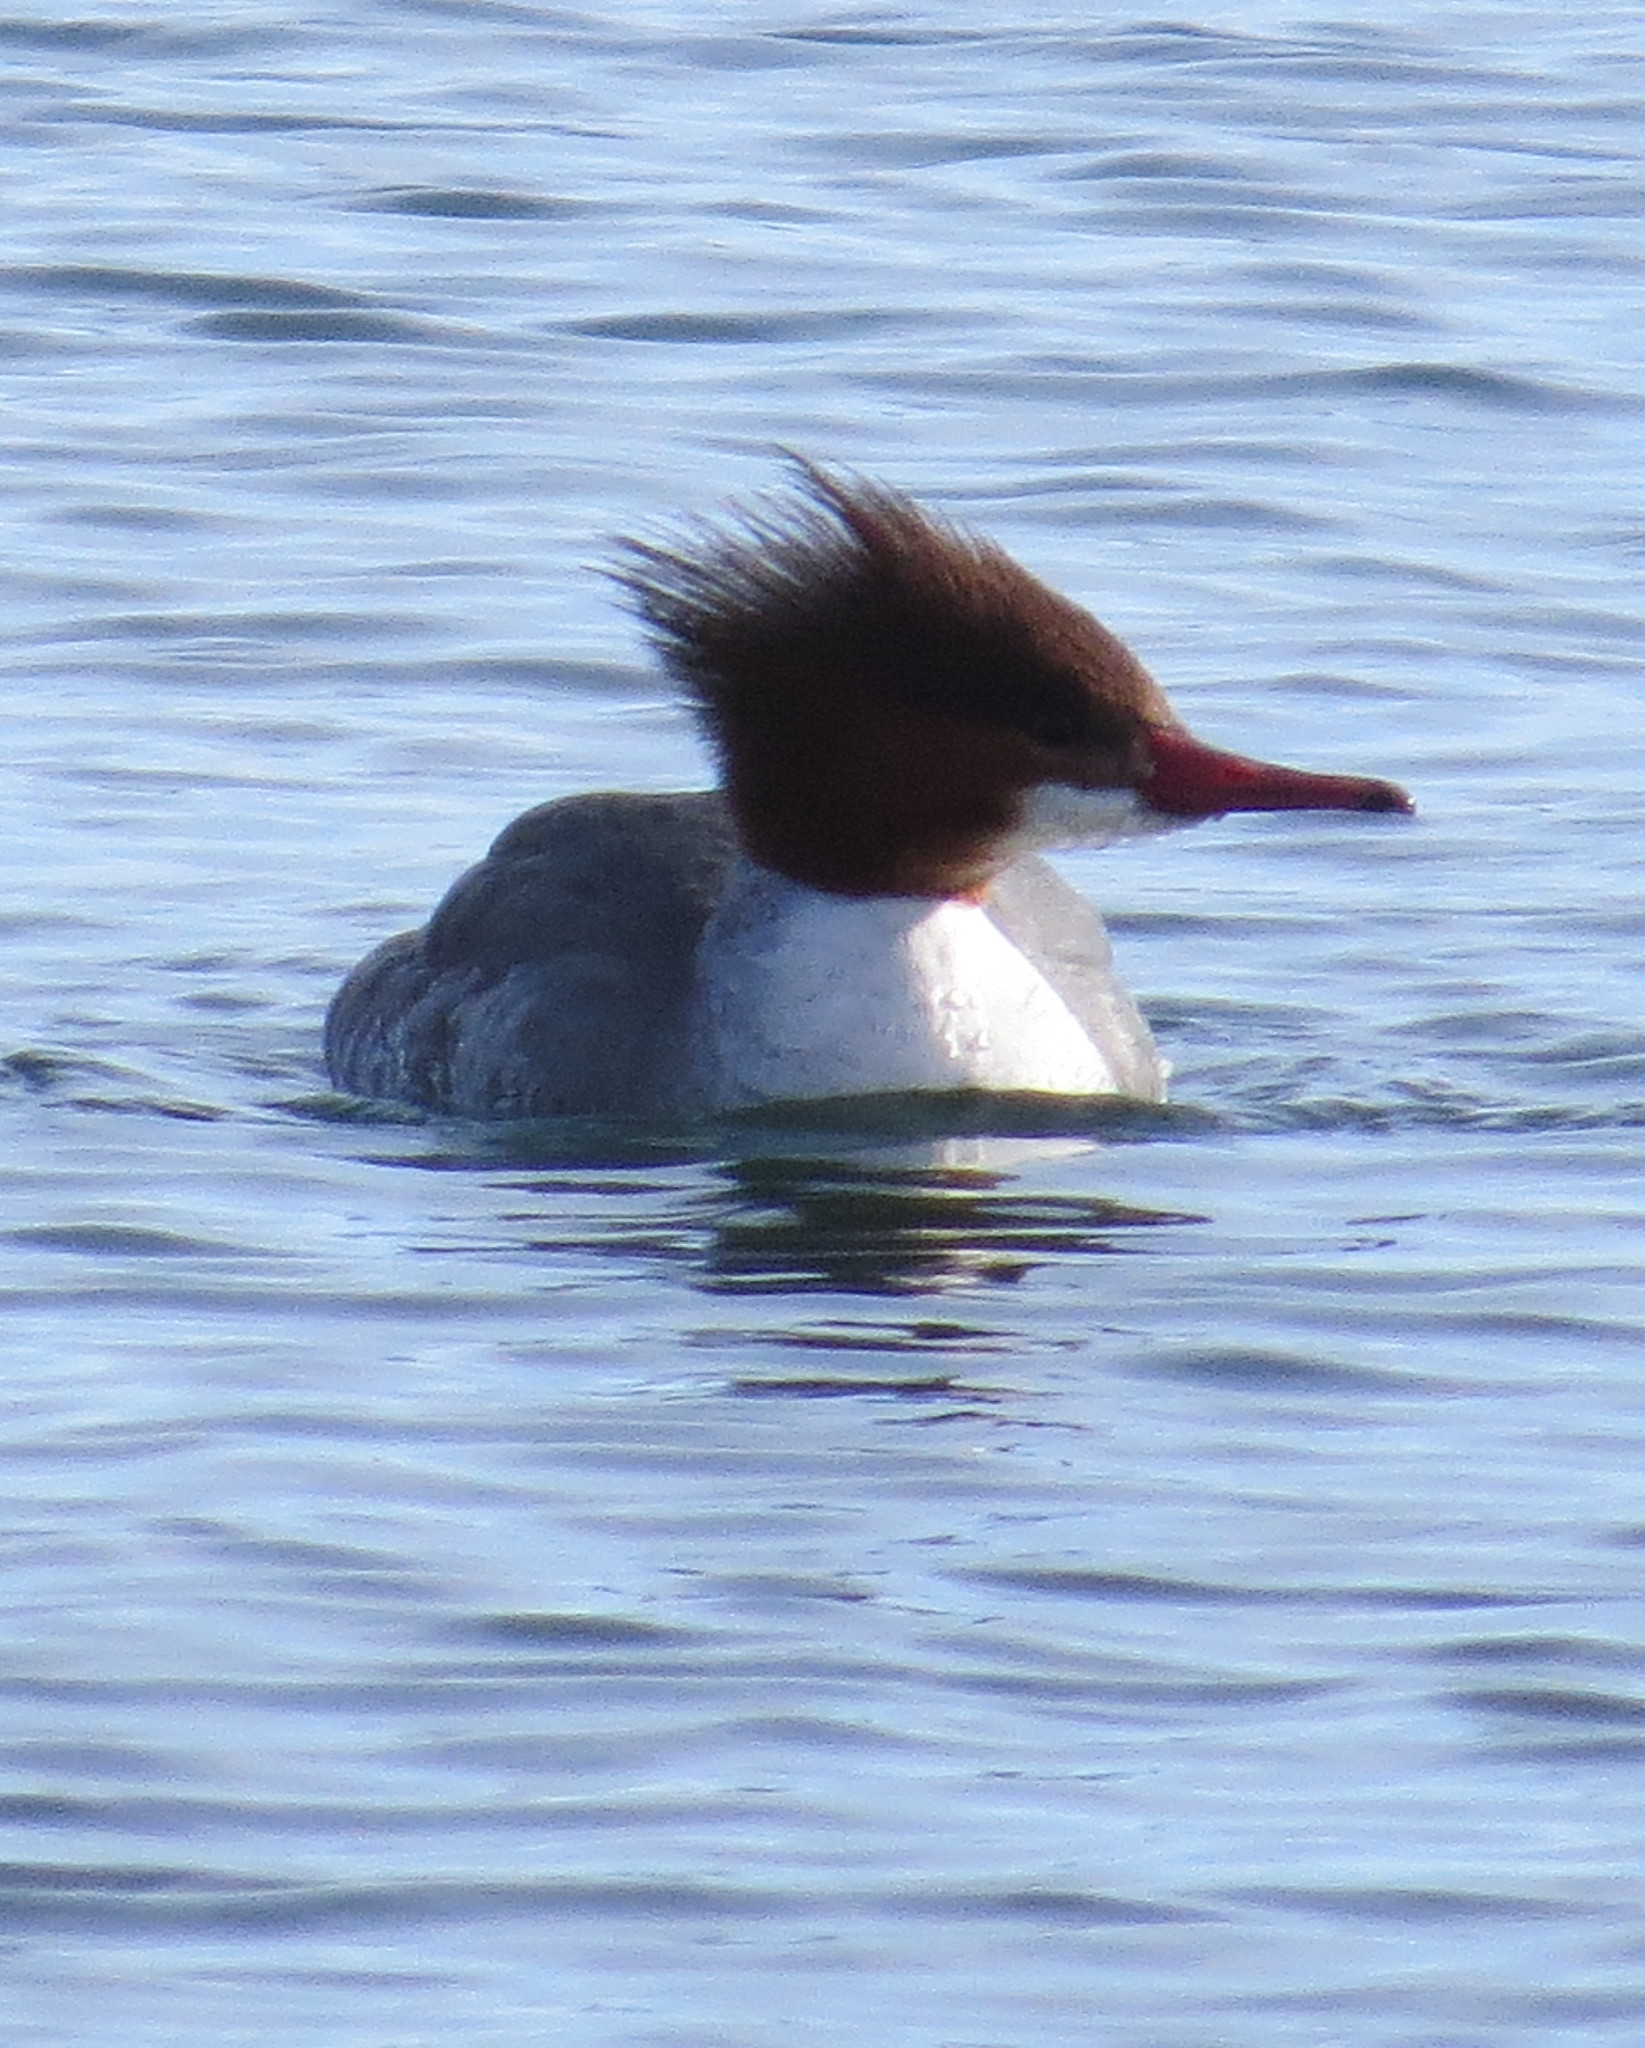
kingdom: Animalia
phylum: Chordata
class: Aves
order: Anseriformes
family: Anatidae
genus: Mergus
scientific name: Mergus merganser
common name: Common merganser
